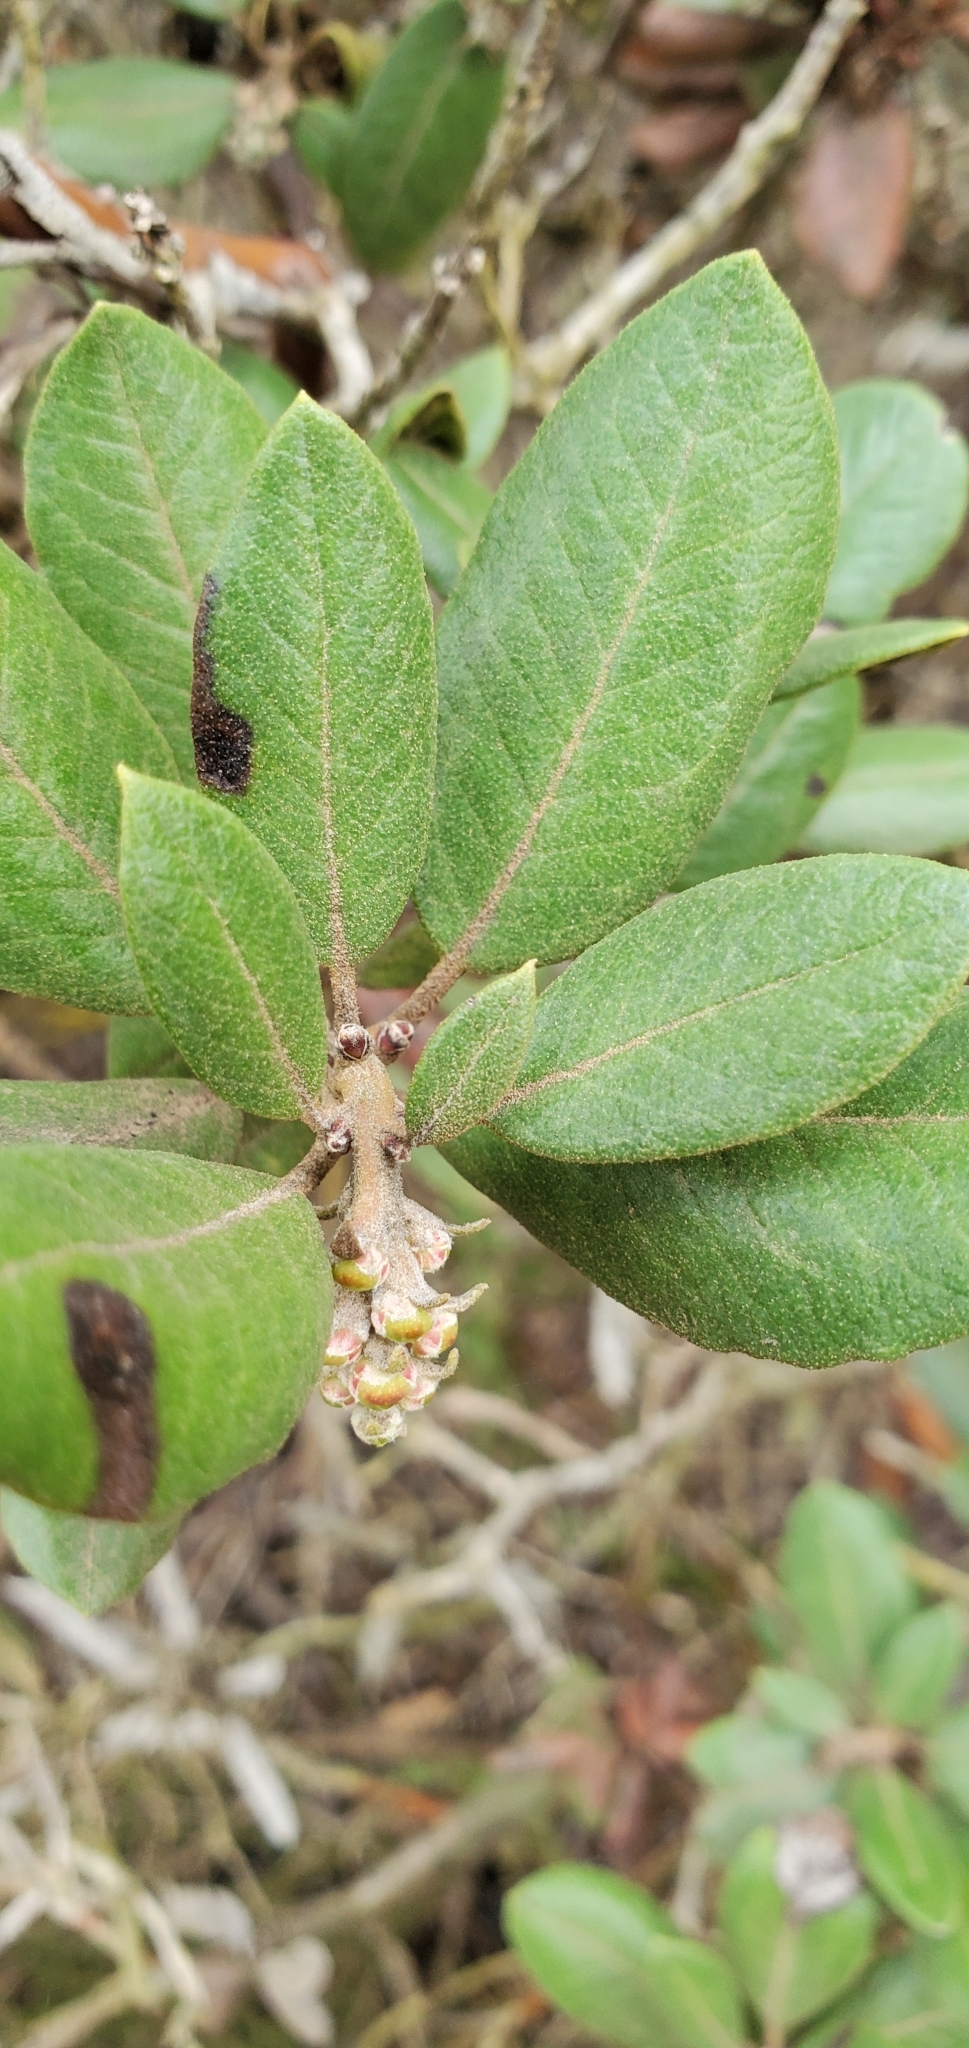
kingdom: Plantae
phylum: Tracheophyta
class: Magnoliopsida
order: Ericales
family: Ericaceae
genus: Arctostaphylos
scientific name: Arctostaphylos bicolor
